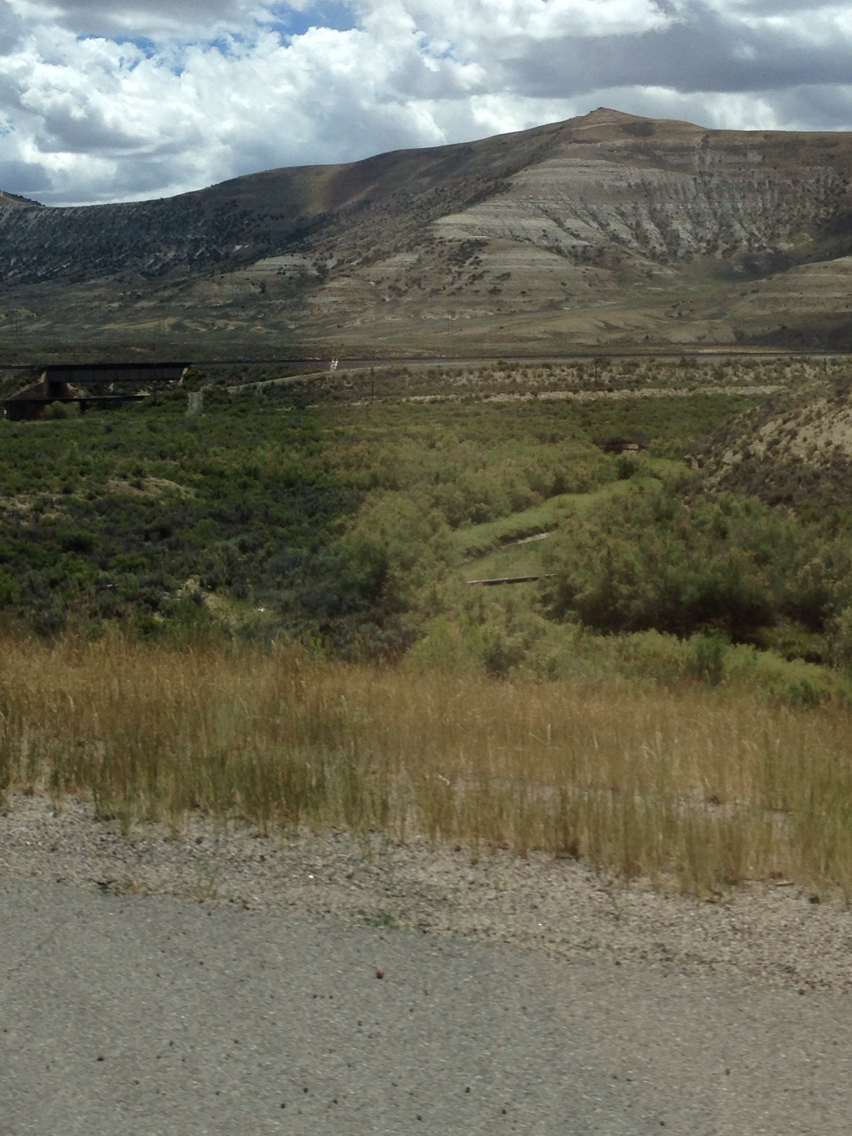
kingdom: Plantae
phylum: Tracheophyta
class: Magnoliopsida
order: Caryophyllales
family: Tamaricaceae
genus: Tamarix
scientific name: Tamarix ramosissima
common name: Pink tamarisk
